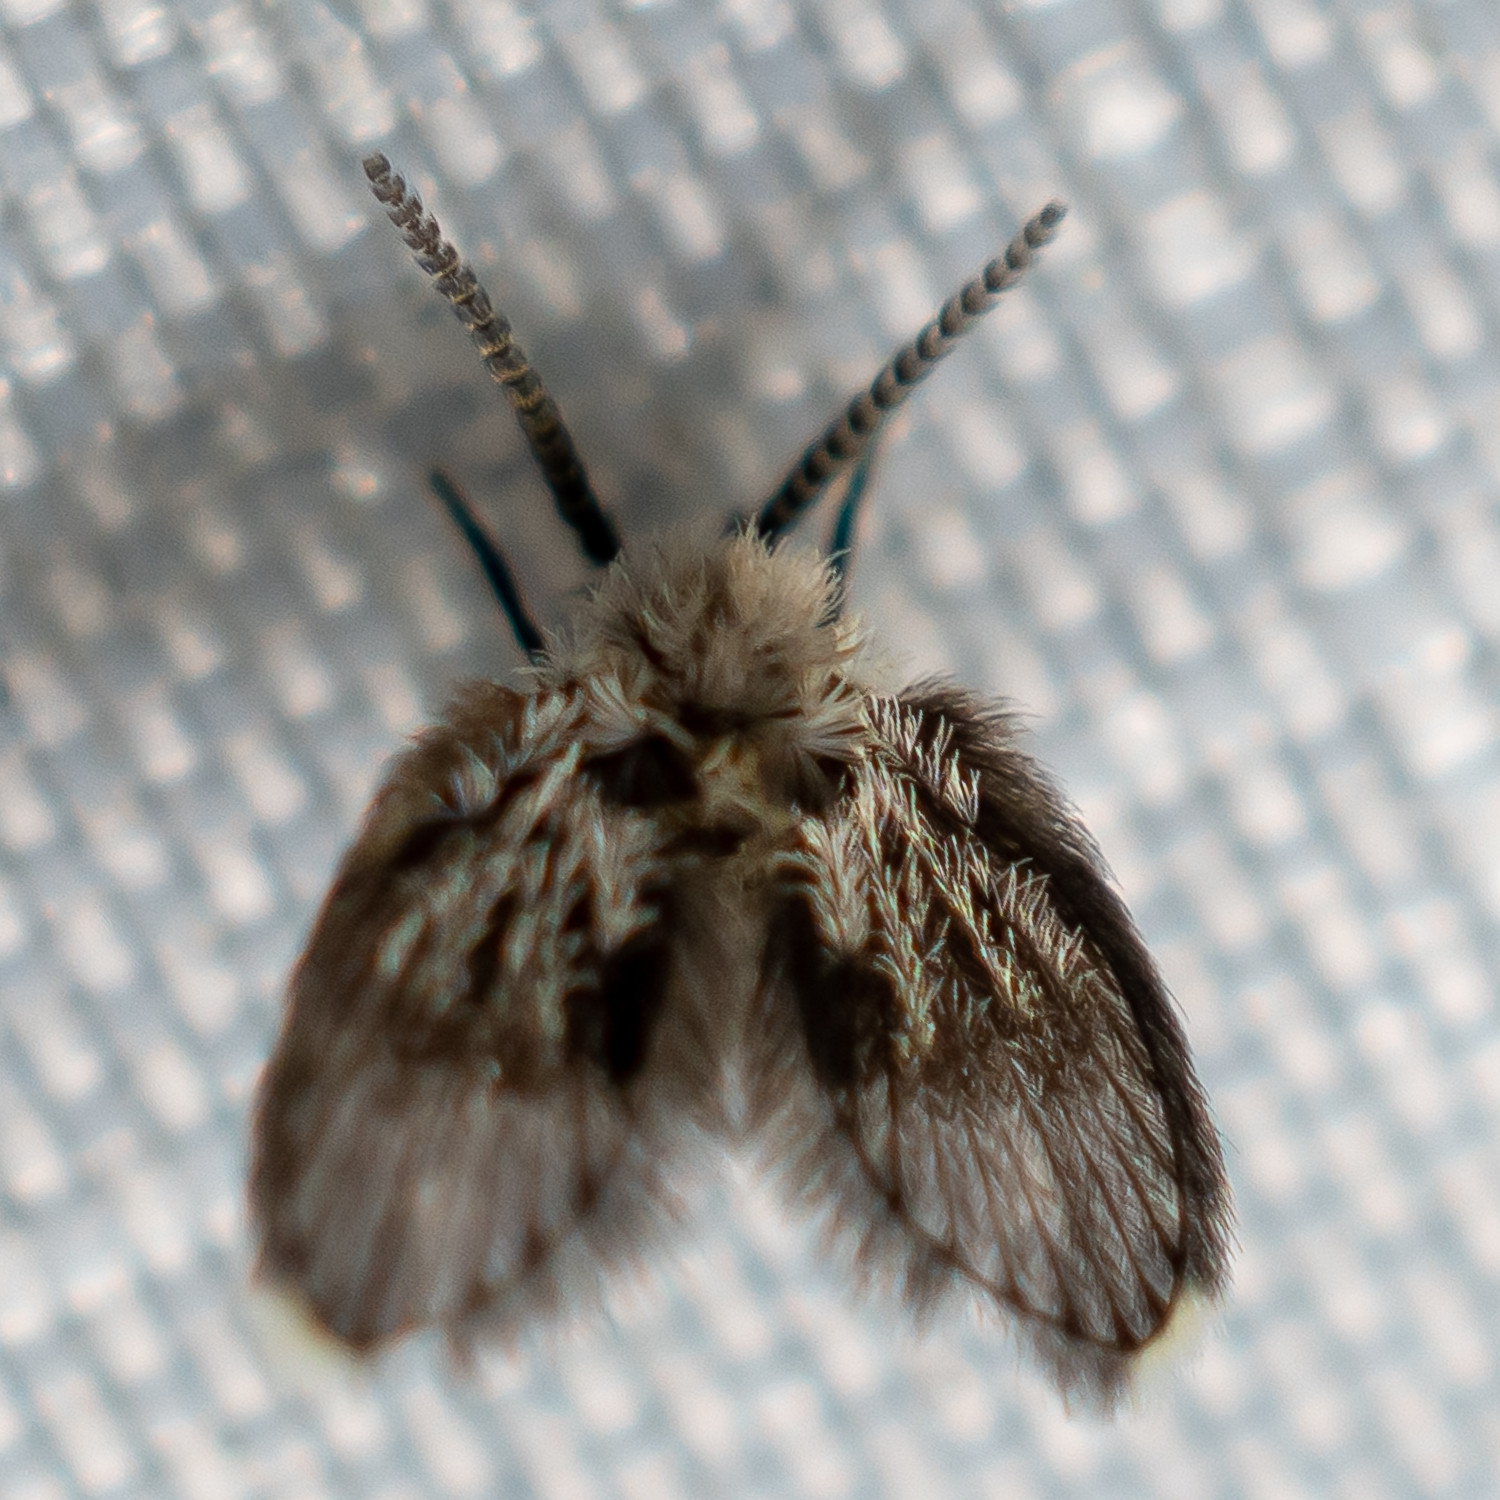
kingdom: Animalia
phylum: Arthropoda
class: Insecta
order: Diptera
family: Psychodidae
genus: Lepiseodina
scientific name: Lepiseodina
